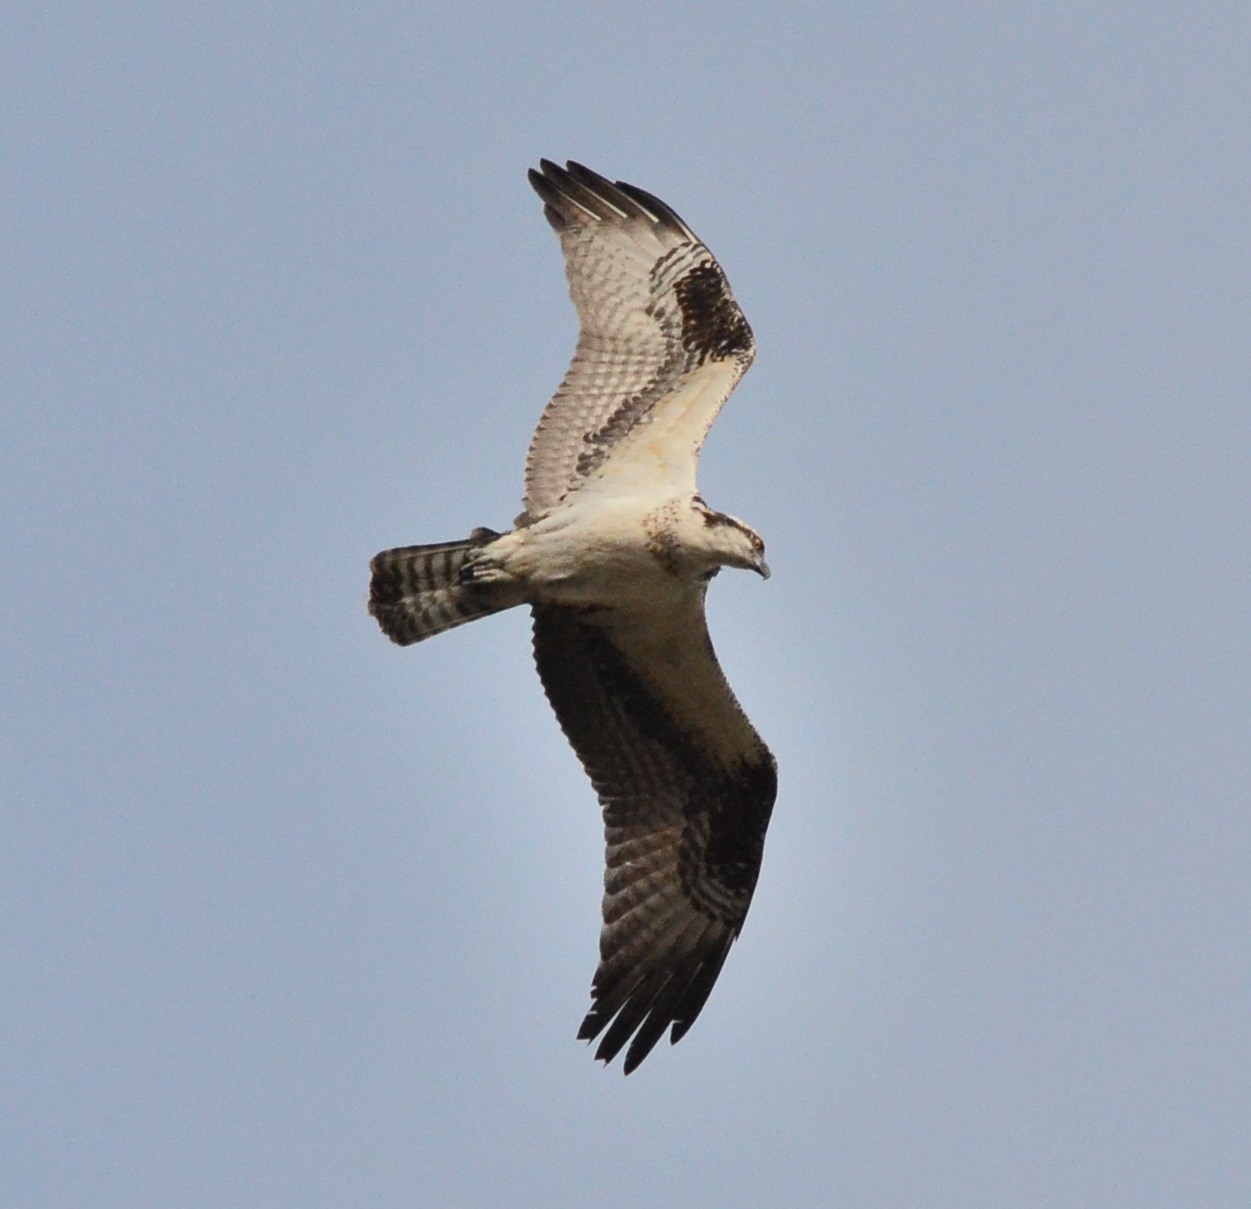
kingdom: Animalia
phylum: Chordata
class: Aves
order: Accipitriformes
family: Pandionidae
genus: Pandion
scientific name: Pandion haliaetus
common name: Osprey
